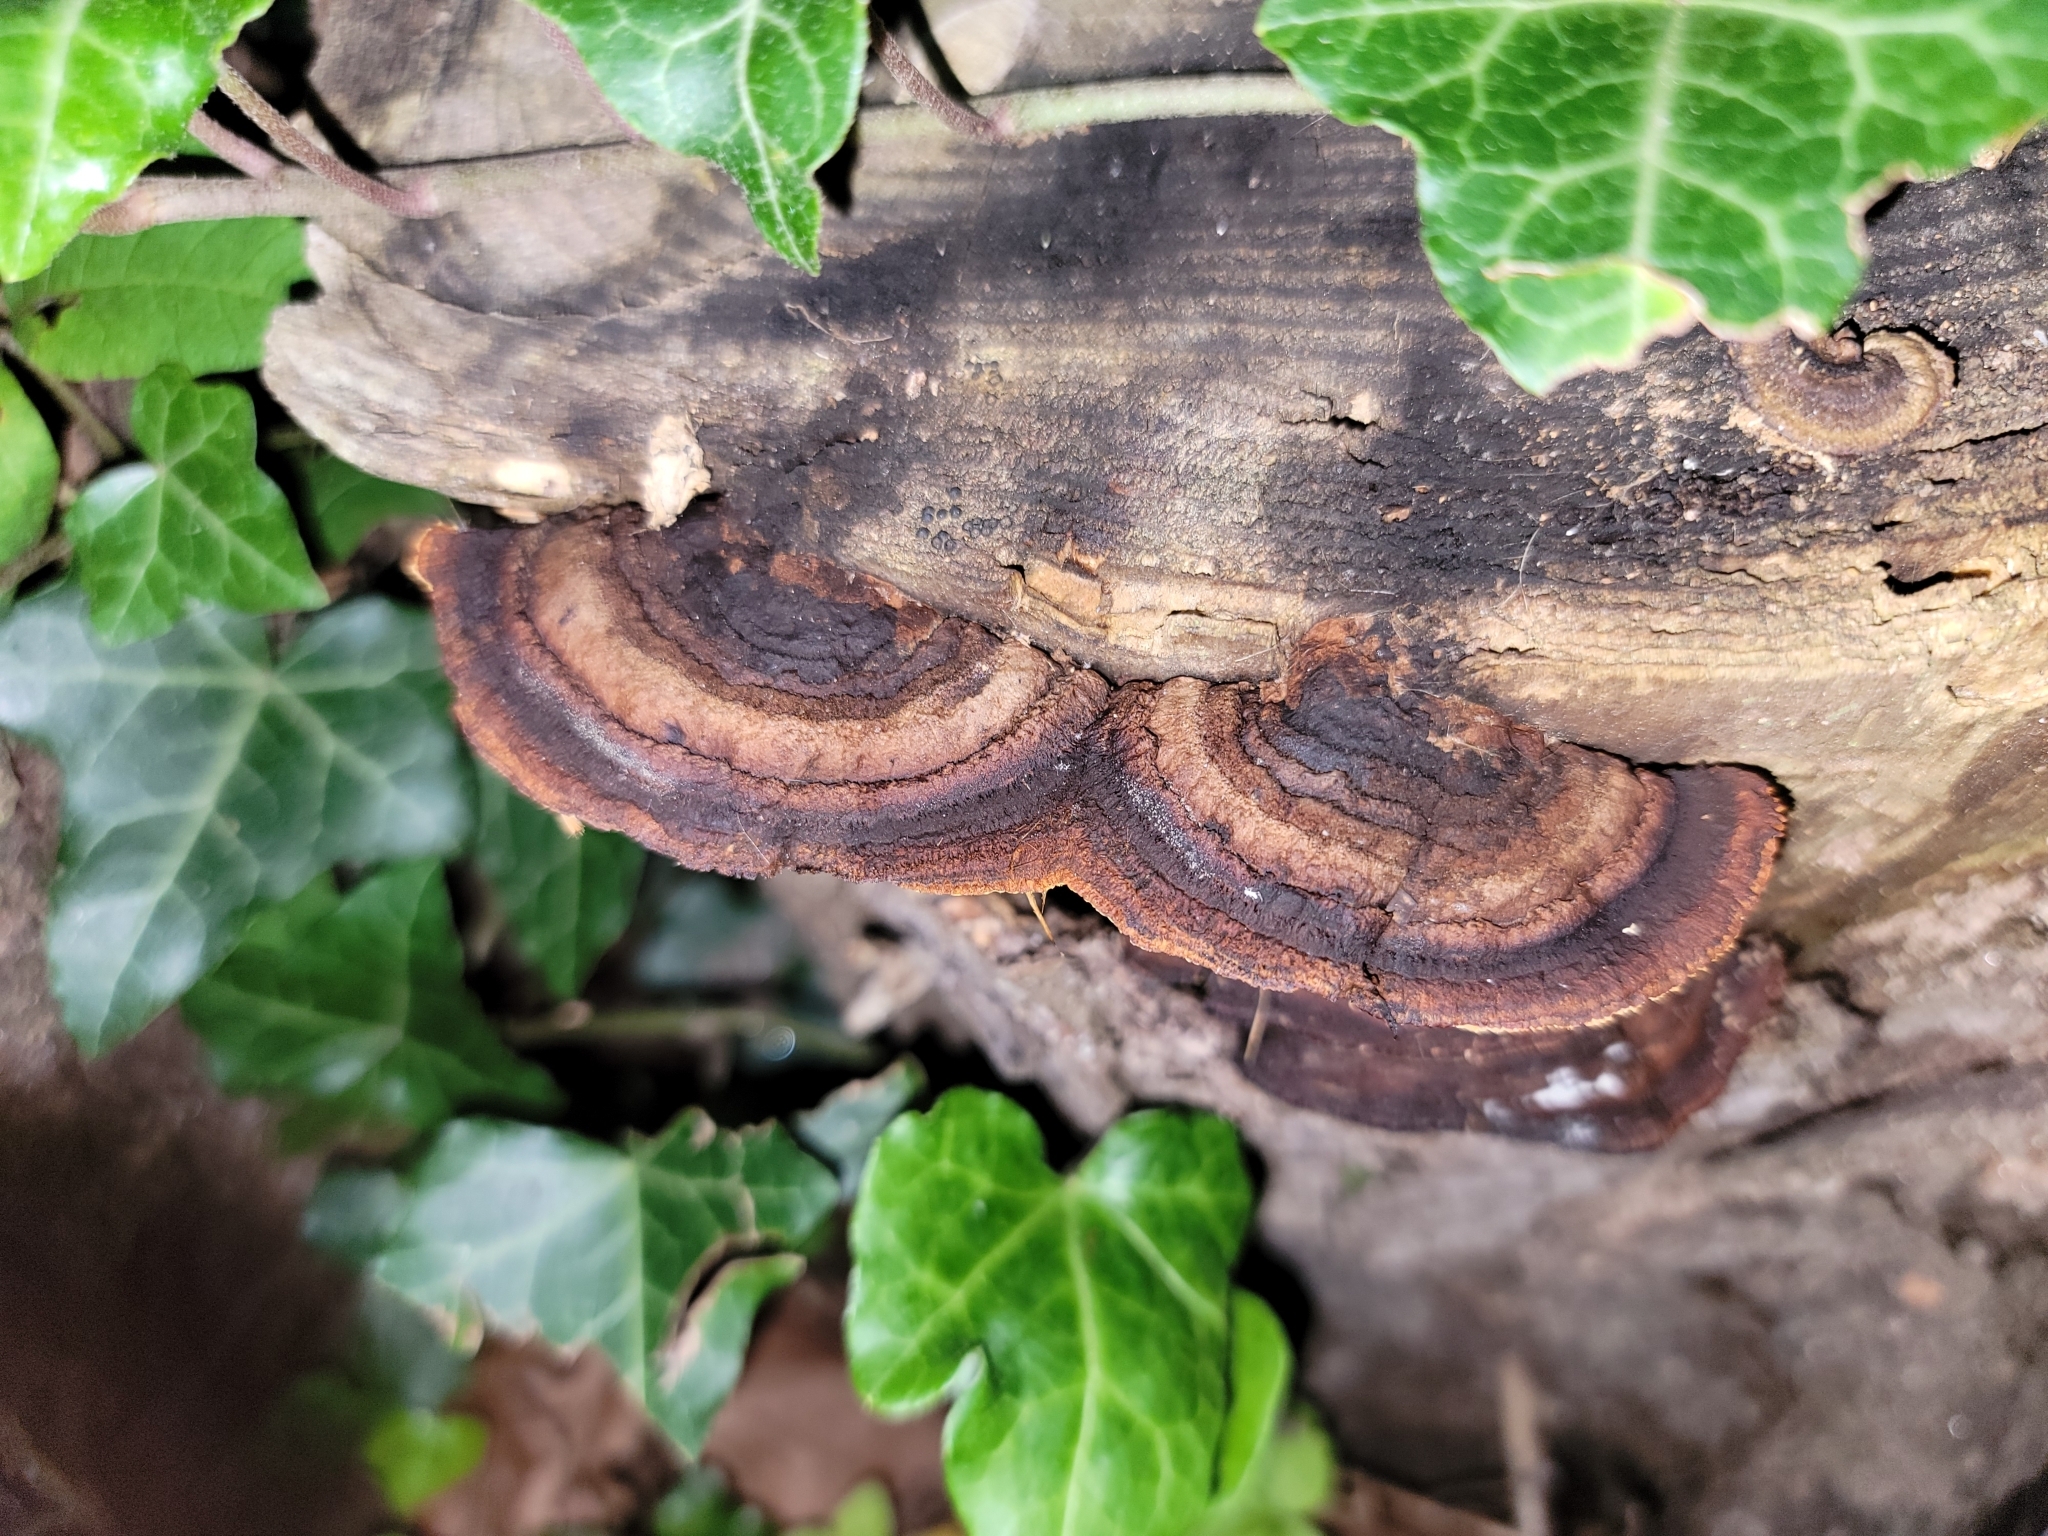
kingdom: Fungi
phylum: Basidiomycota
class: Agaricomycetes
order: Gloeophyllales
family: Gloeophyllaceae
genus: Gloeophyllum
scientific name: Gloeophyllum sepiarium
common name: Conifer mazegill
